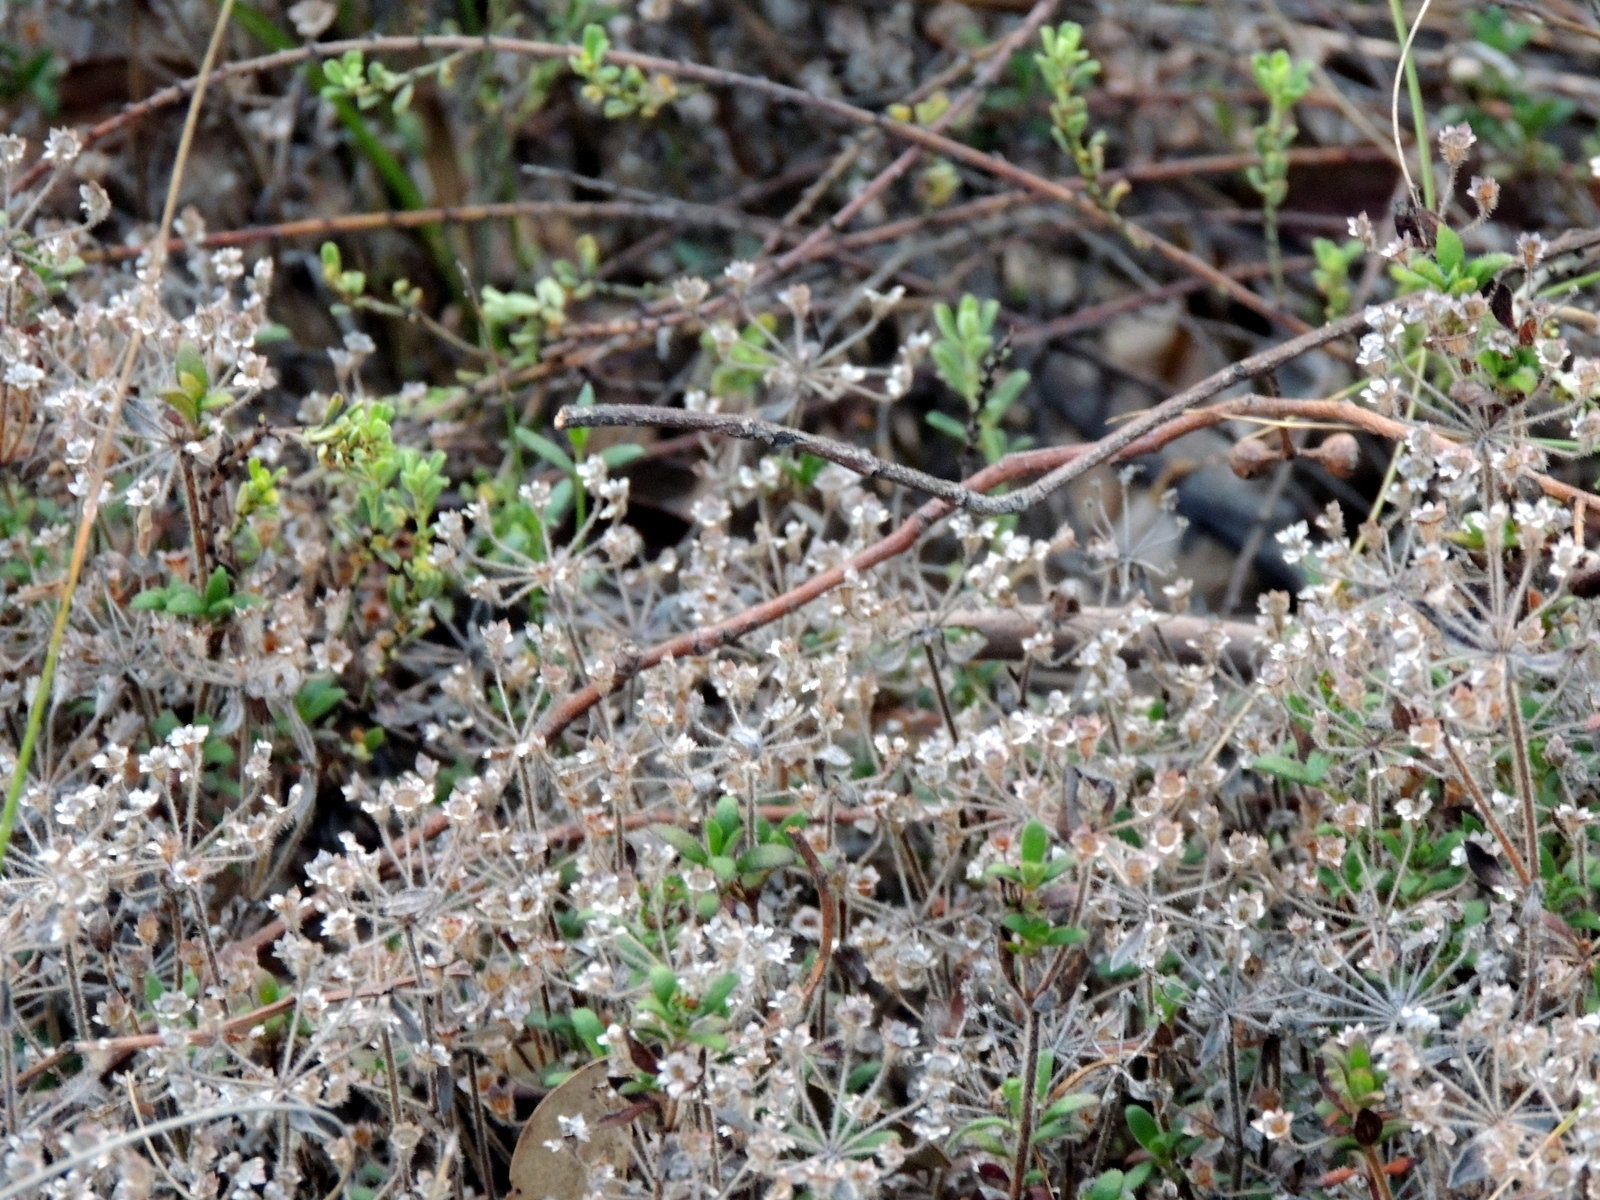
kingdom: Plantae
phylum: Tracheophyta
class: Magnoliopsida
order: Gentianales
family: Rubiaceae
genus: Pomax
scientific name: Pomax umbellata
